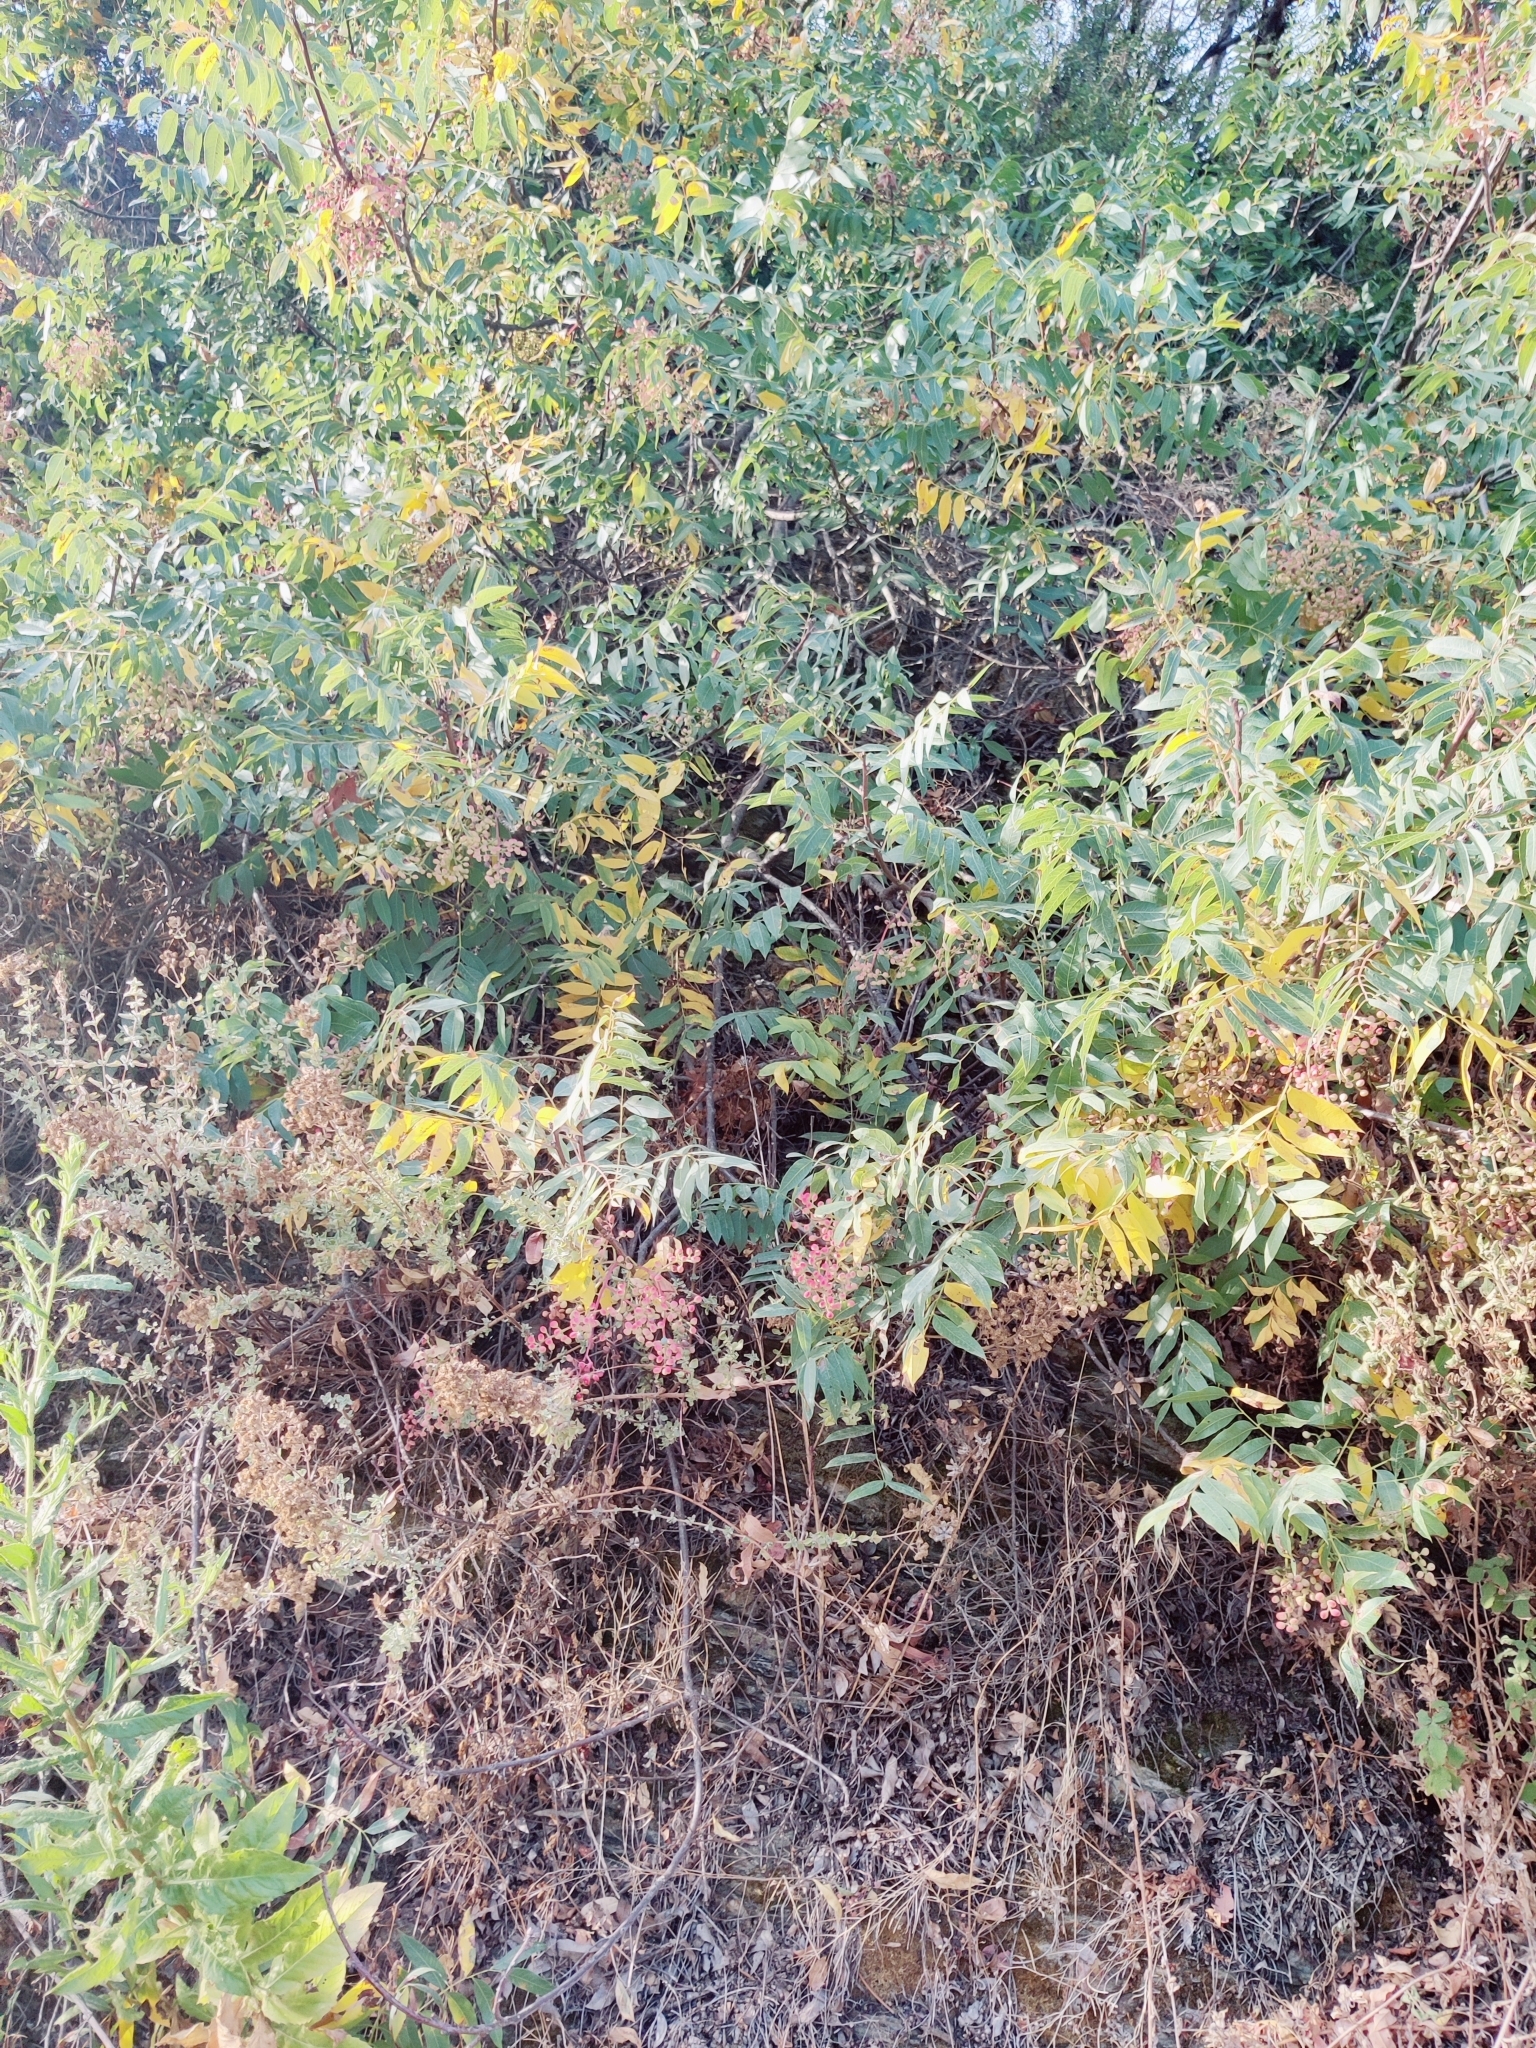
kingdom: Plantae
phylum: Tracheophyta
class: Magnoliopsida
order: Sapindales
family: Anacardiaceae
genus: Pistacia
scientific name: Pistacia terebinthus
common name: Terebinth
